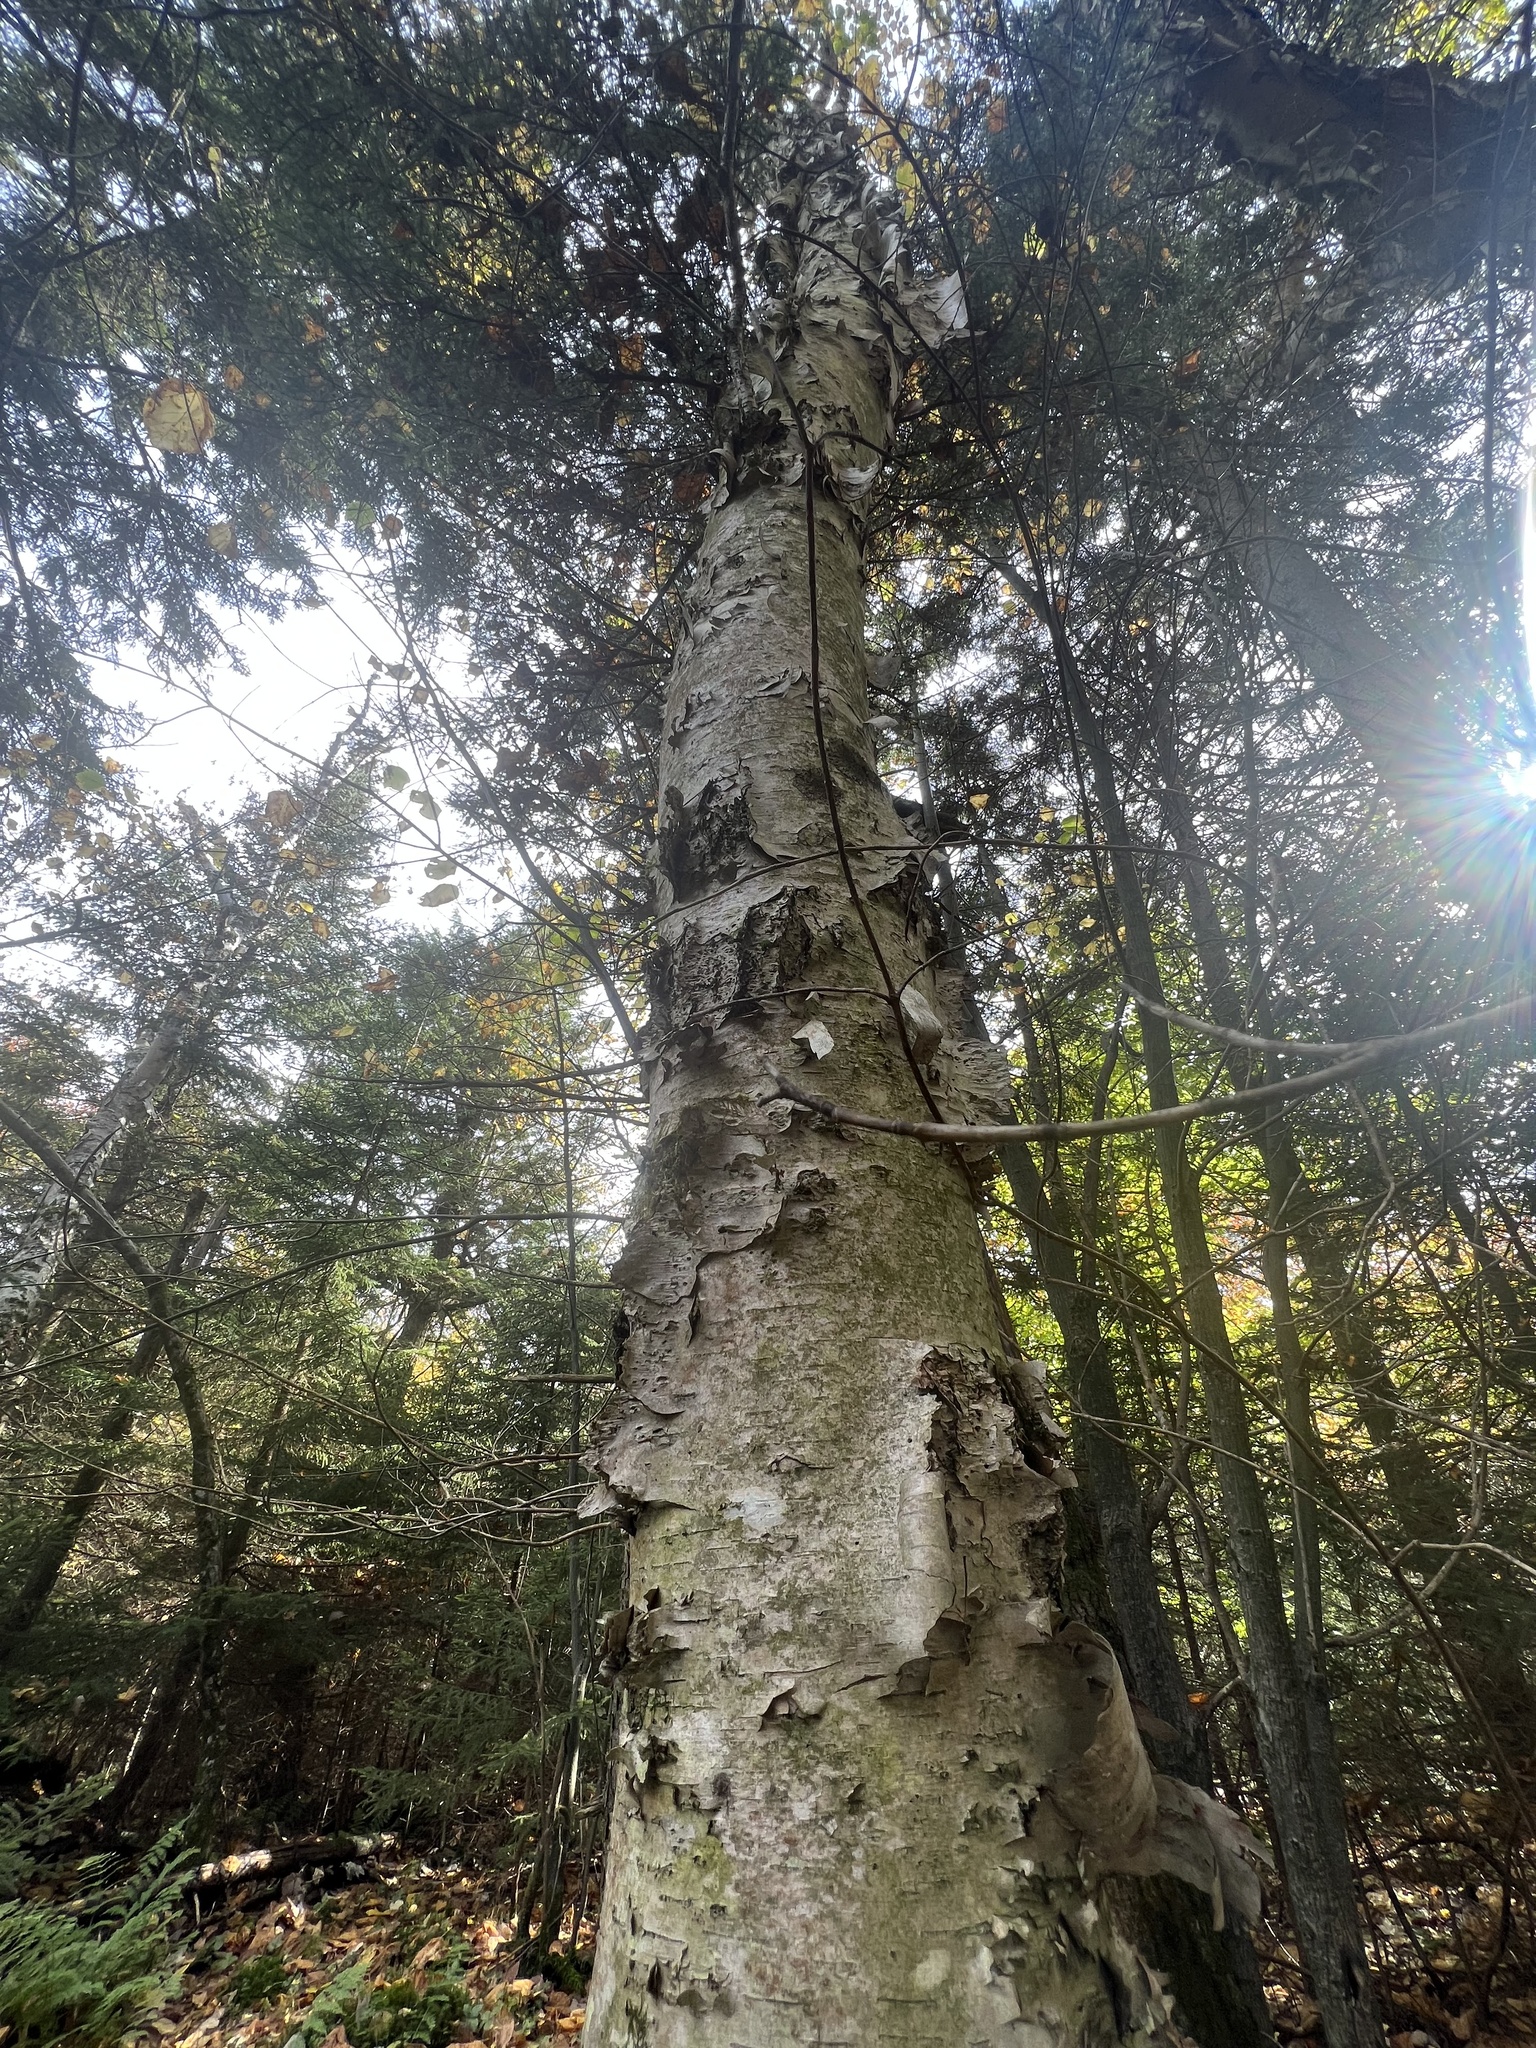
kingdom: Plantae
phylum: Tracheophyta
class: Magnoliopsida
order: Fagales
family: Betulaceae
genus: Betula
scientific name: Betula papyrifera
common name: Paper birch
